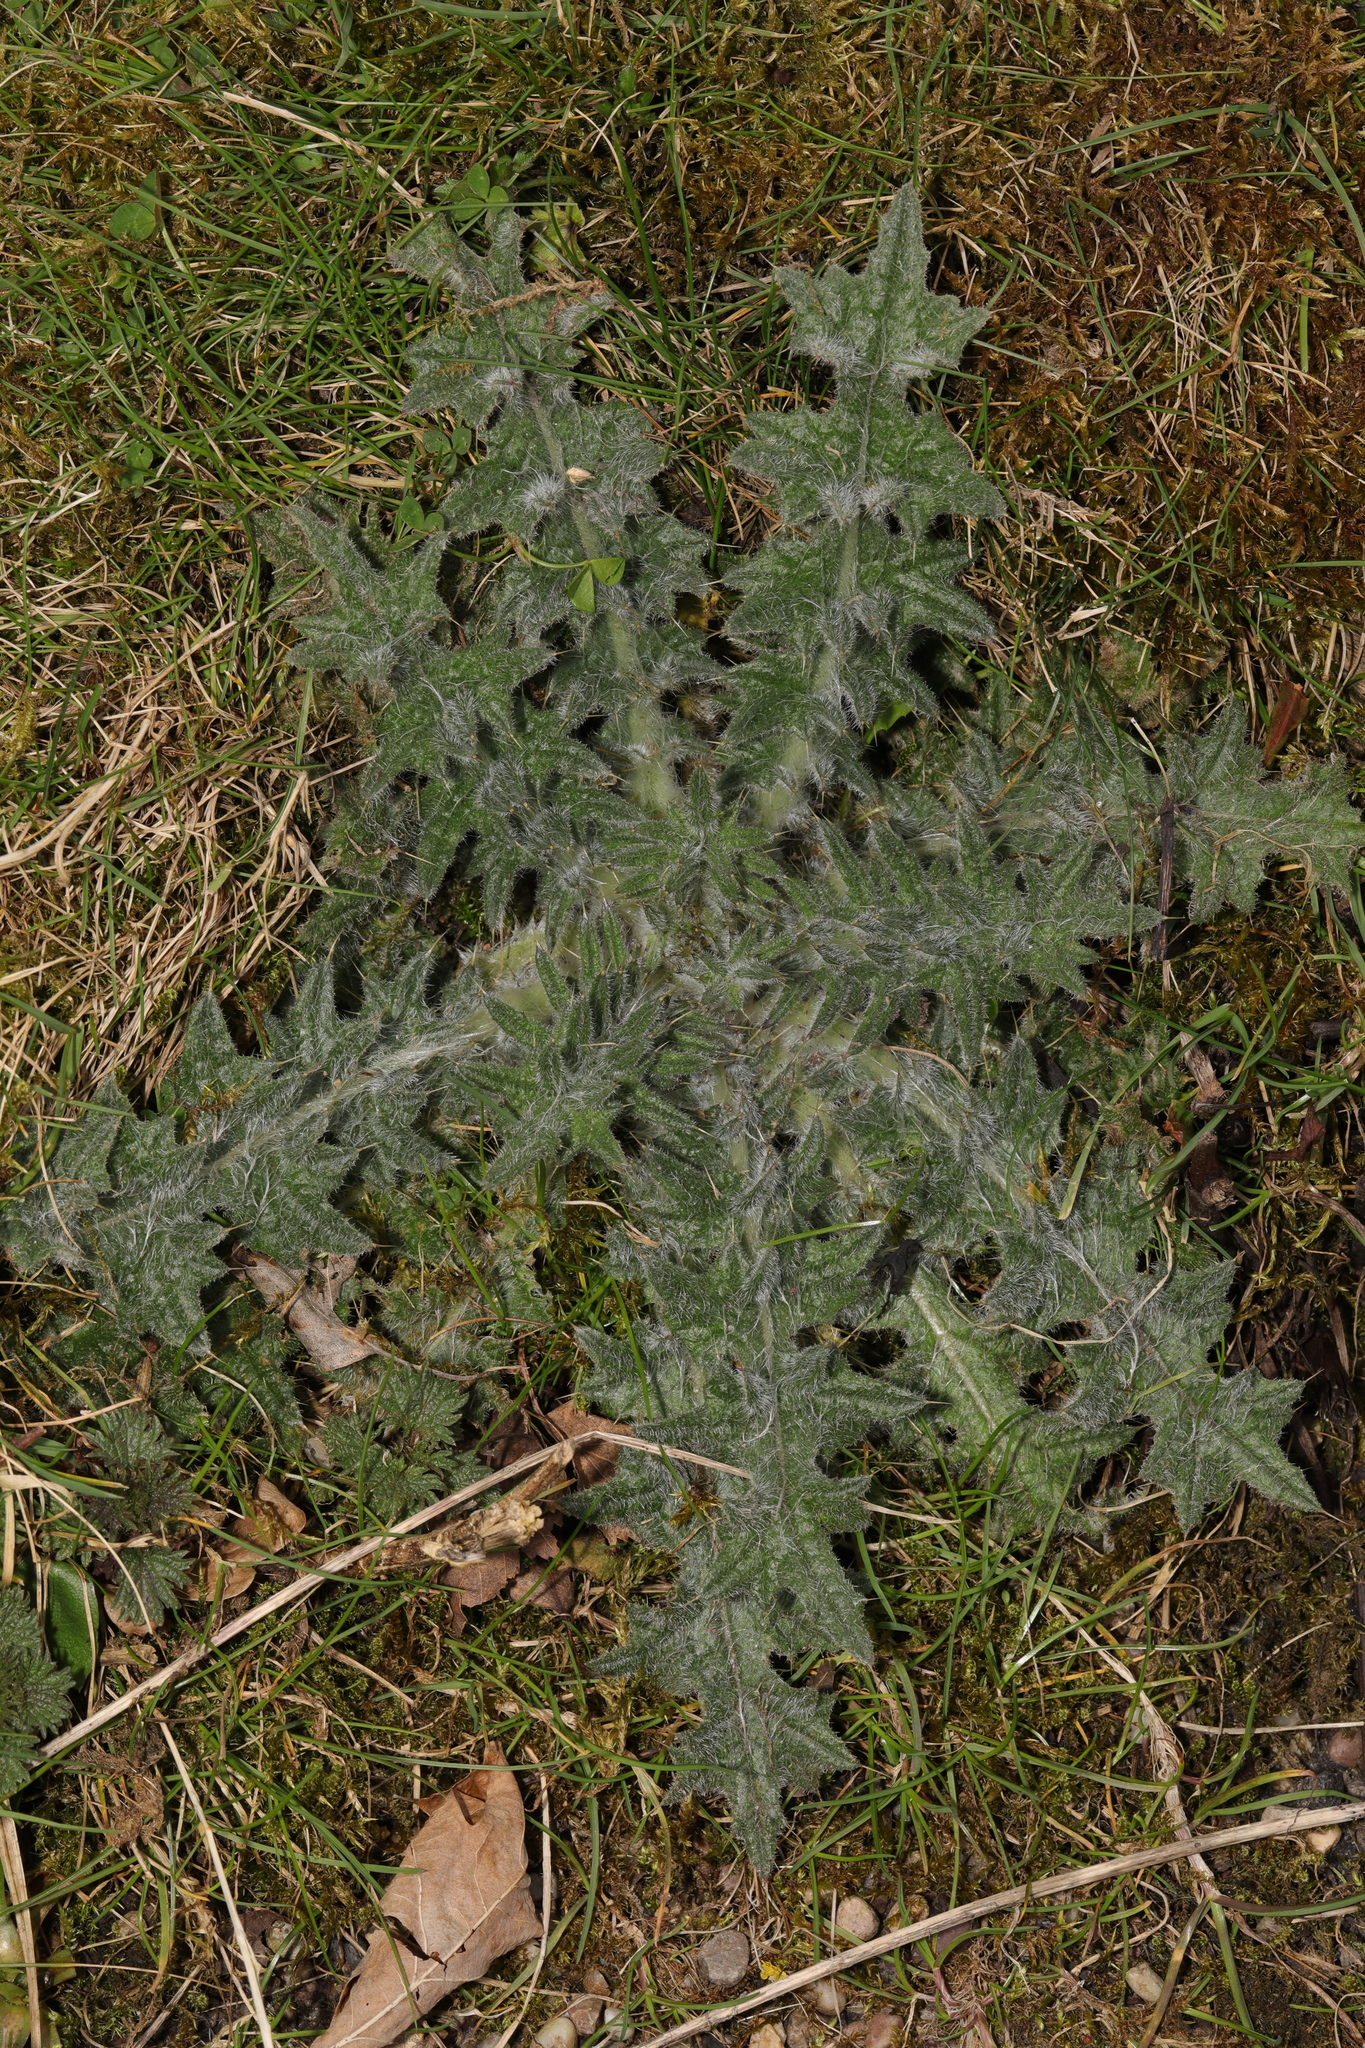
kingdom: Plantae
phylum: Tracheophyta
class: Magnoliopsida
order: Asterales
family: Asteraceae
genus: Cirsium
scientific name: Cirsium vulgare
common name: Bull thistle
